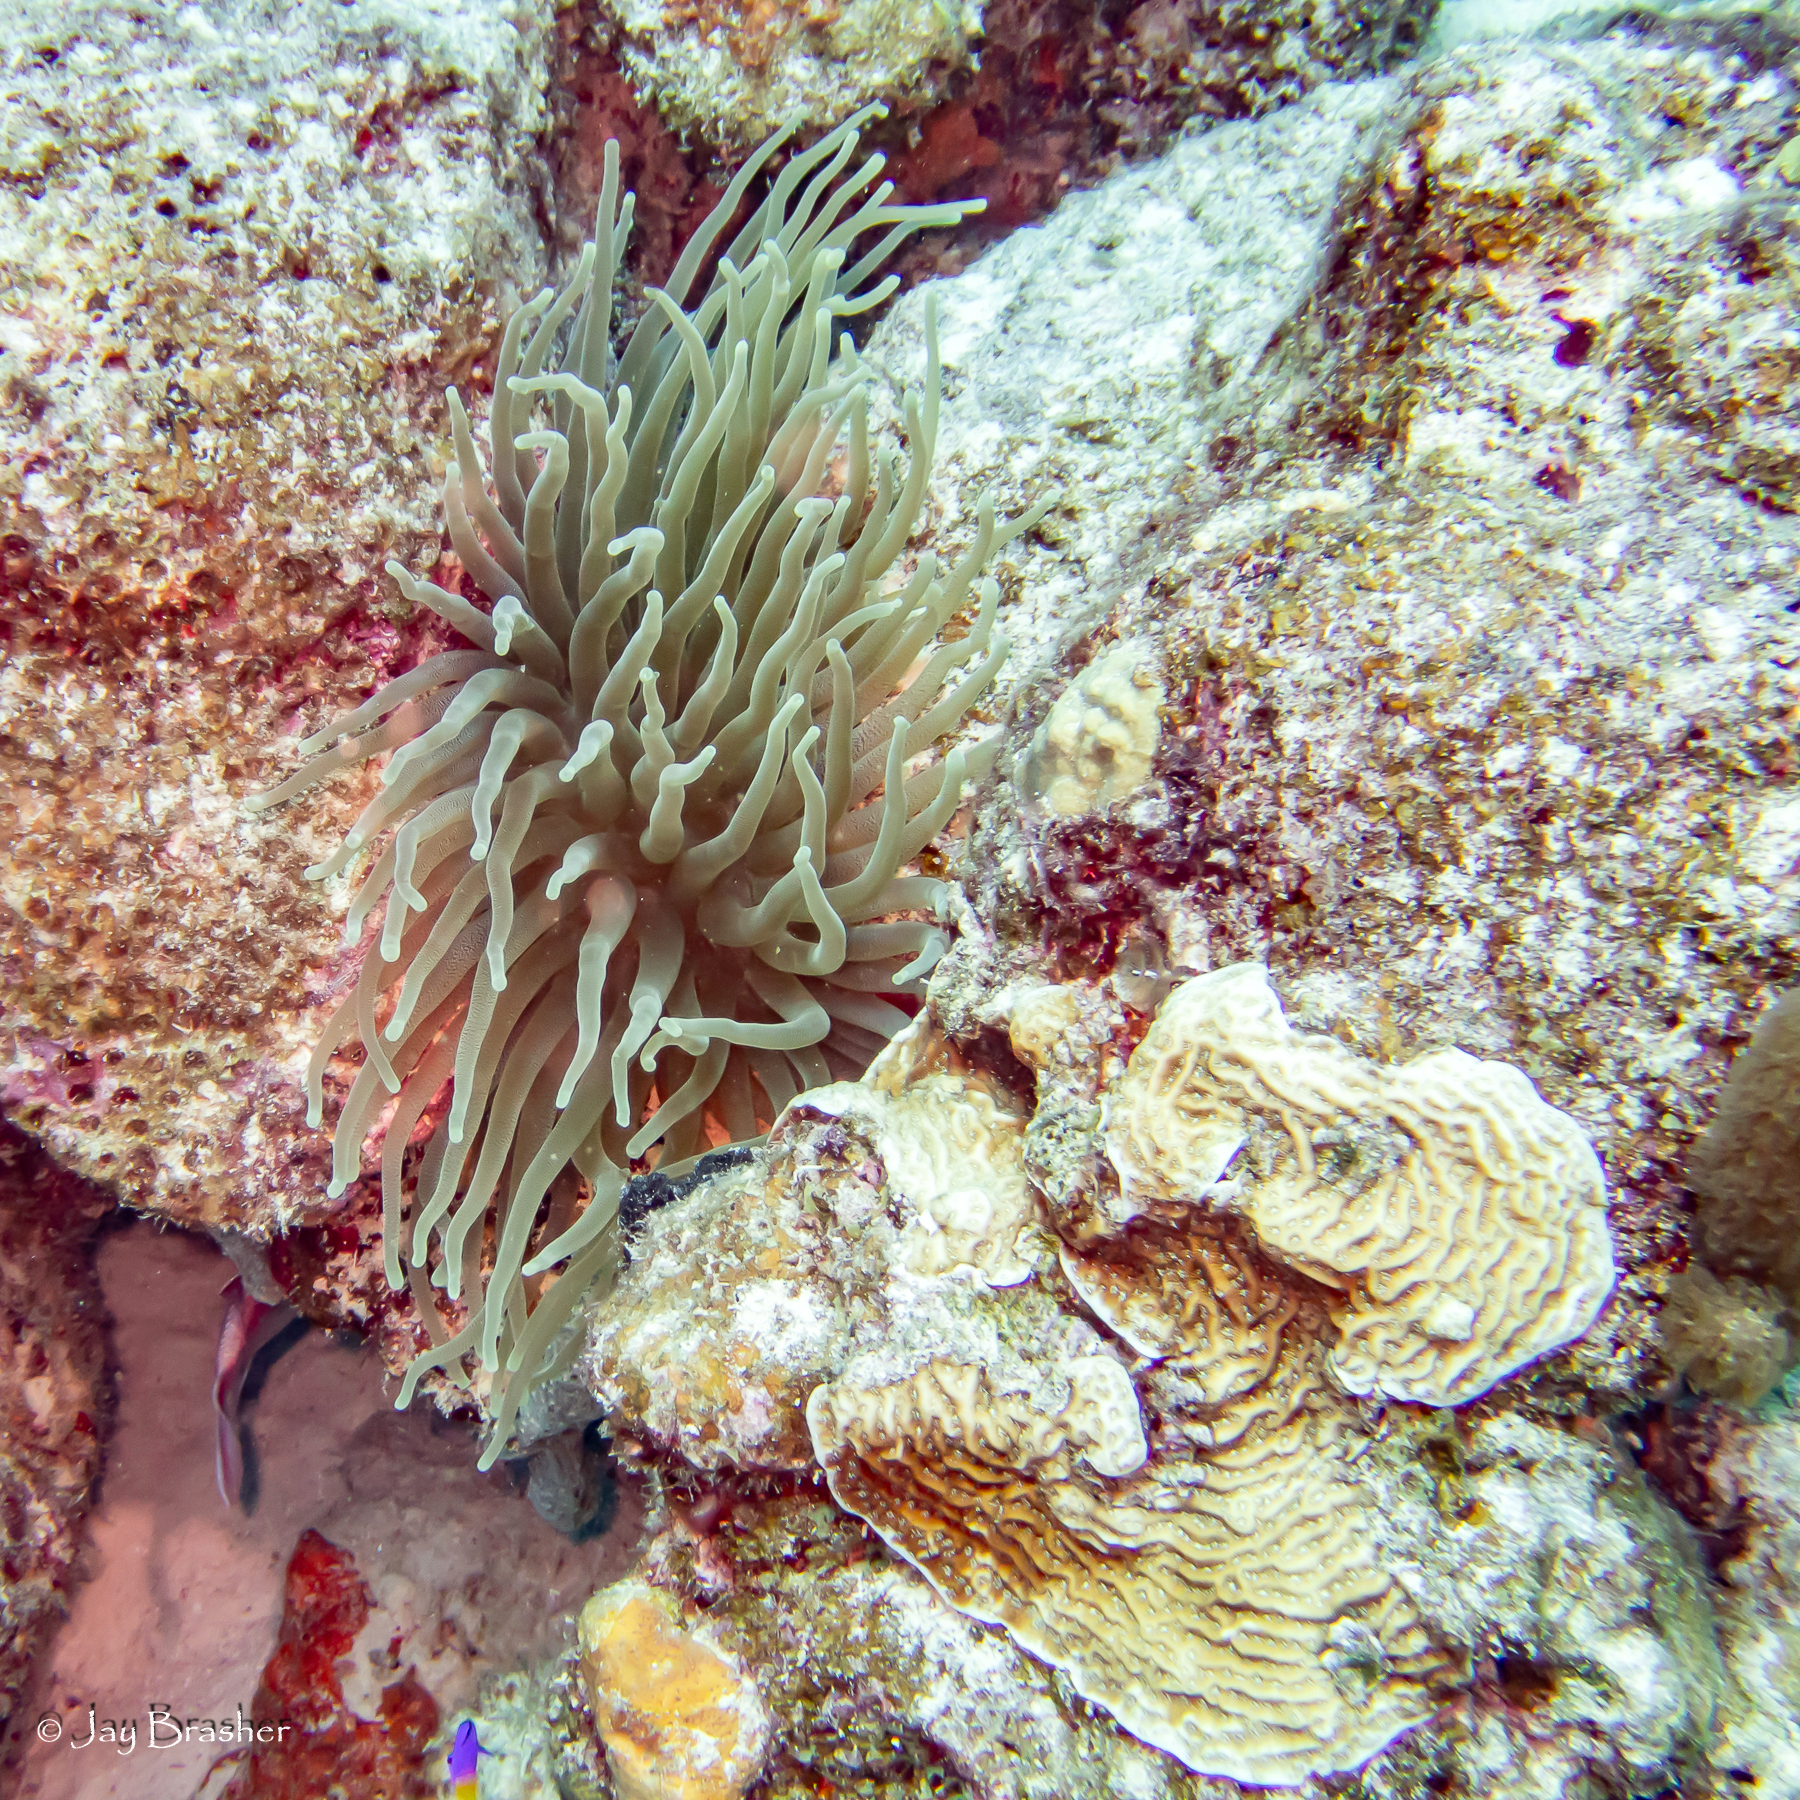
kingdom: Animalia
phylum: Cnidaria
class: Anthozoa
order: Actiniaria
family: Actiniidae
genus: Condylactis
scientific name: Condylactis gigantea
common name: Giant caribbean anemone
